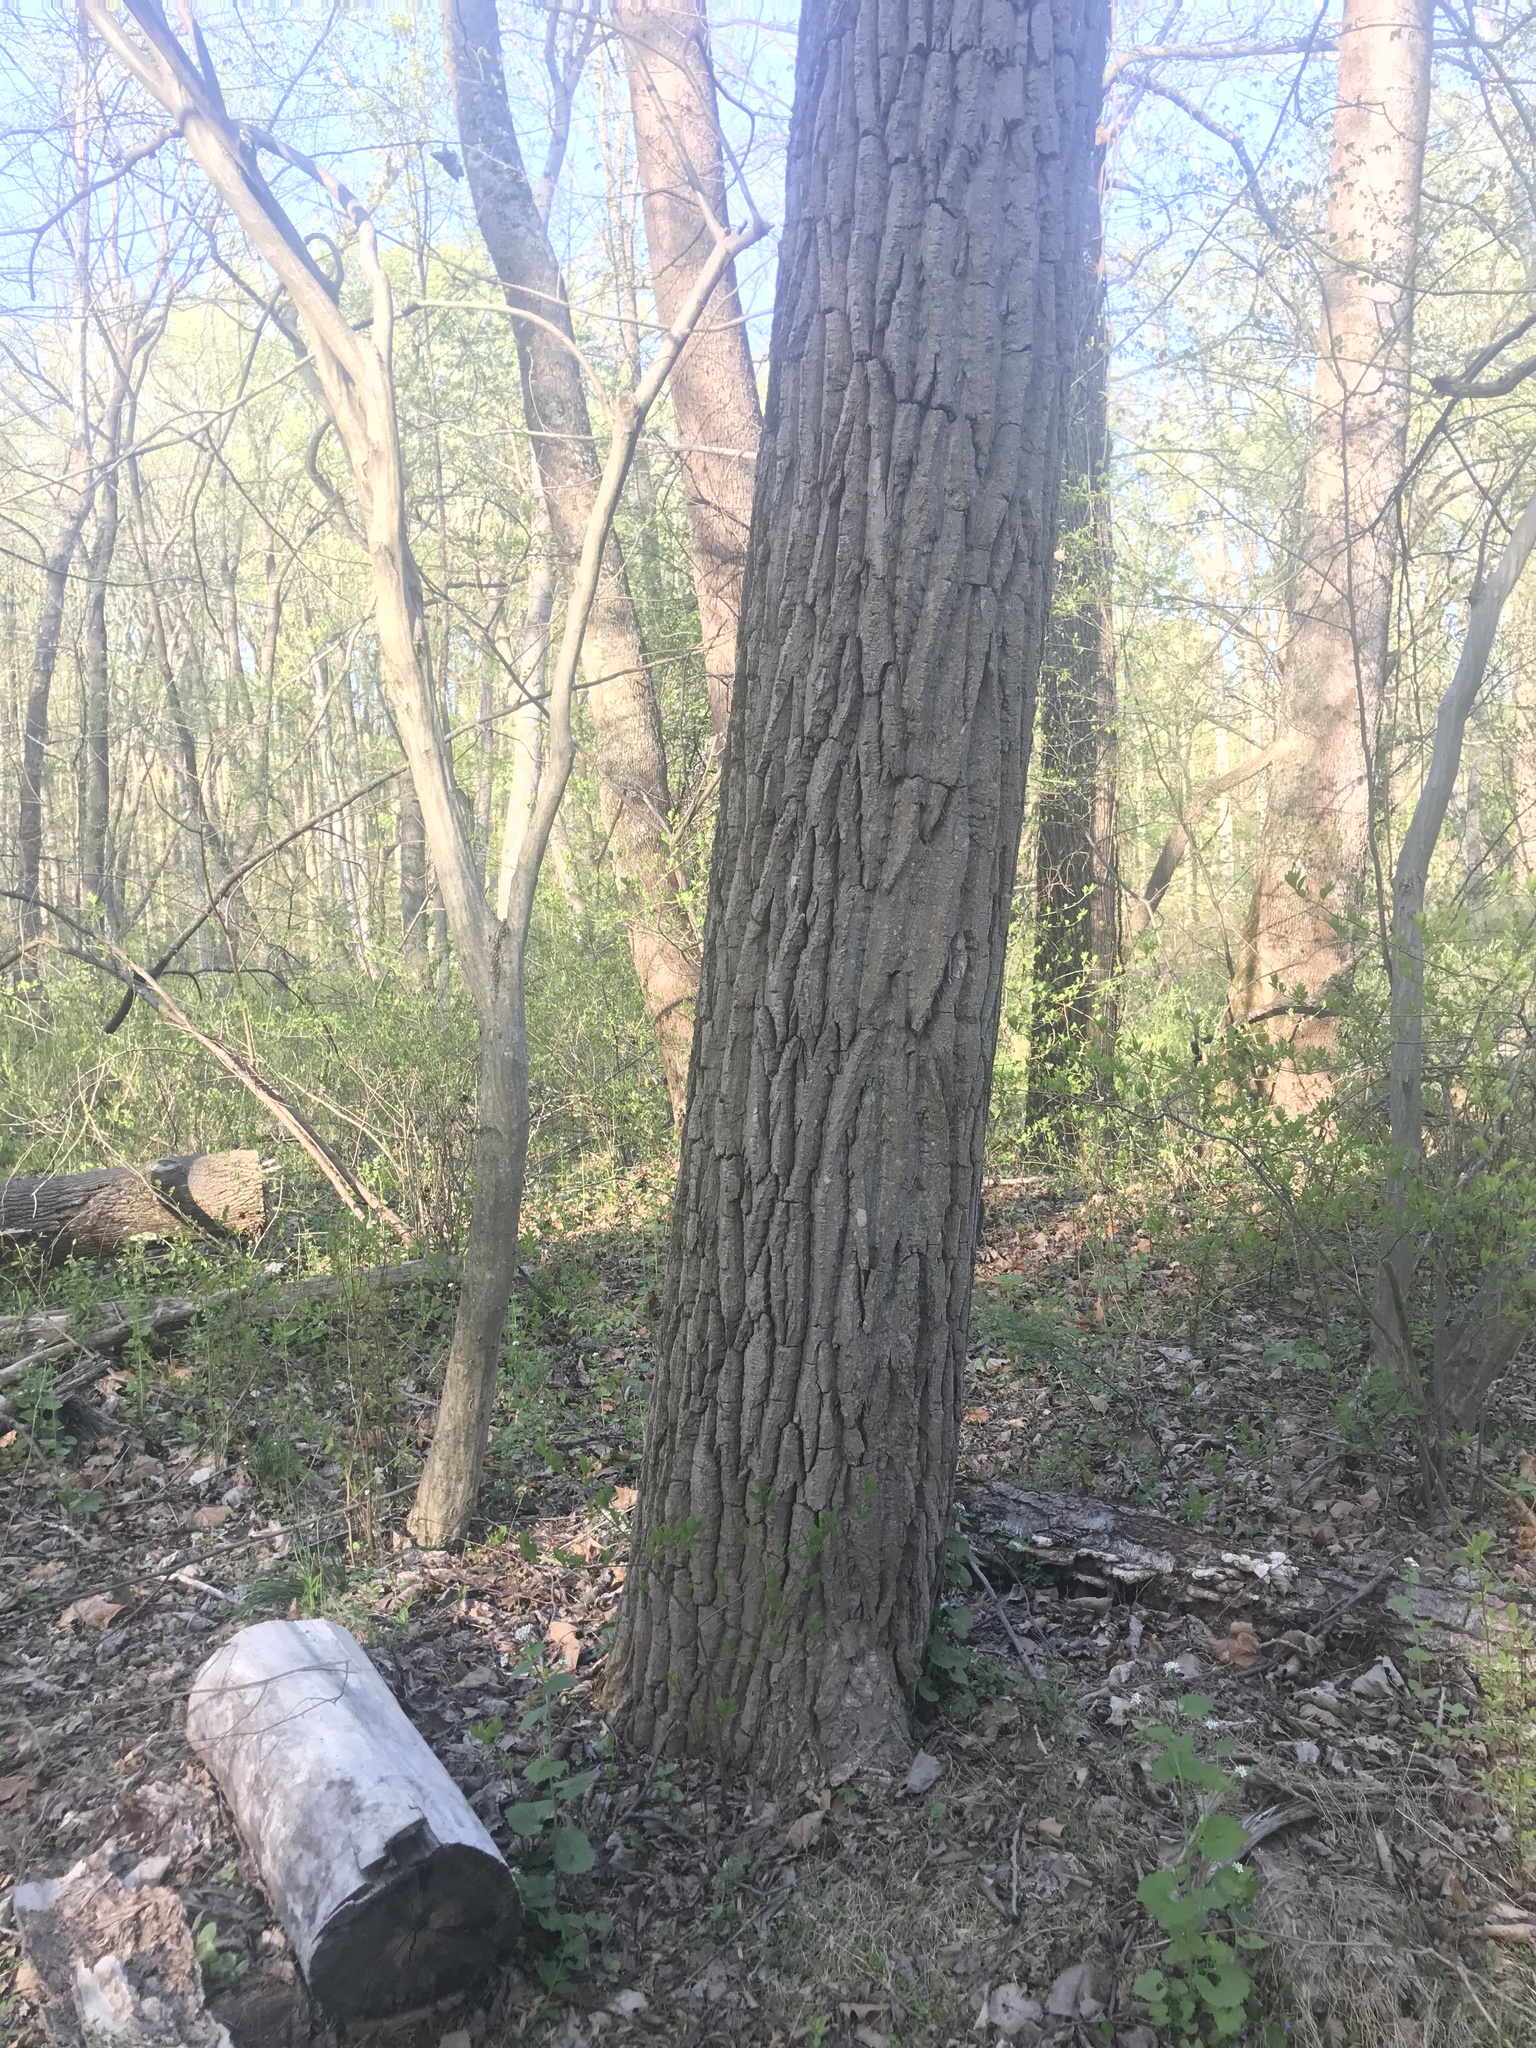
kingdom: Plantae
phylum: Tracheophyta
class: Magnoliopsida
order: Malpighiales
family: Salicaceae
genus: Populus
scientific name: Populus deltoides
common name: Eastern cottonwood
